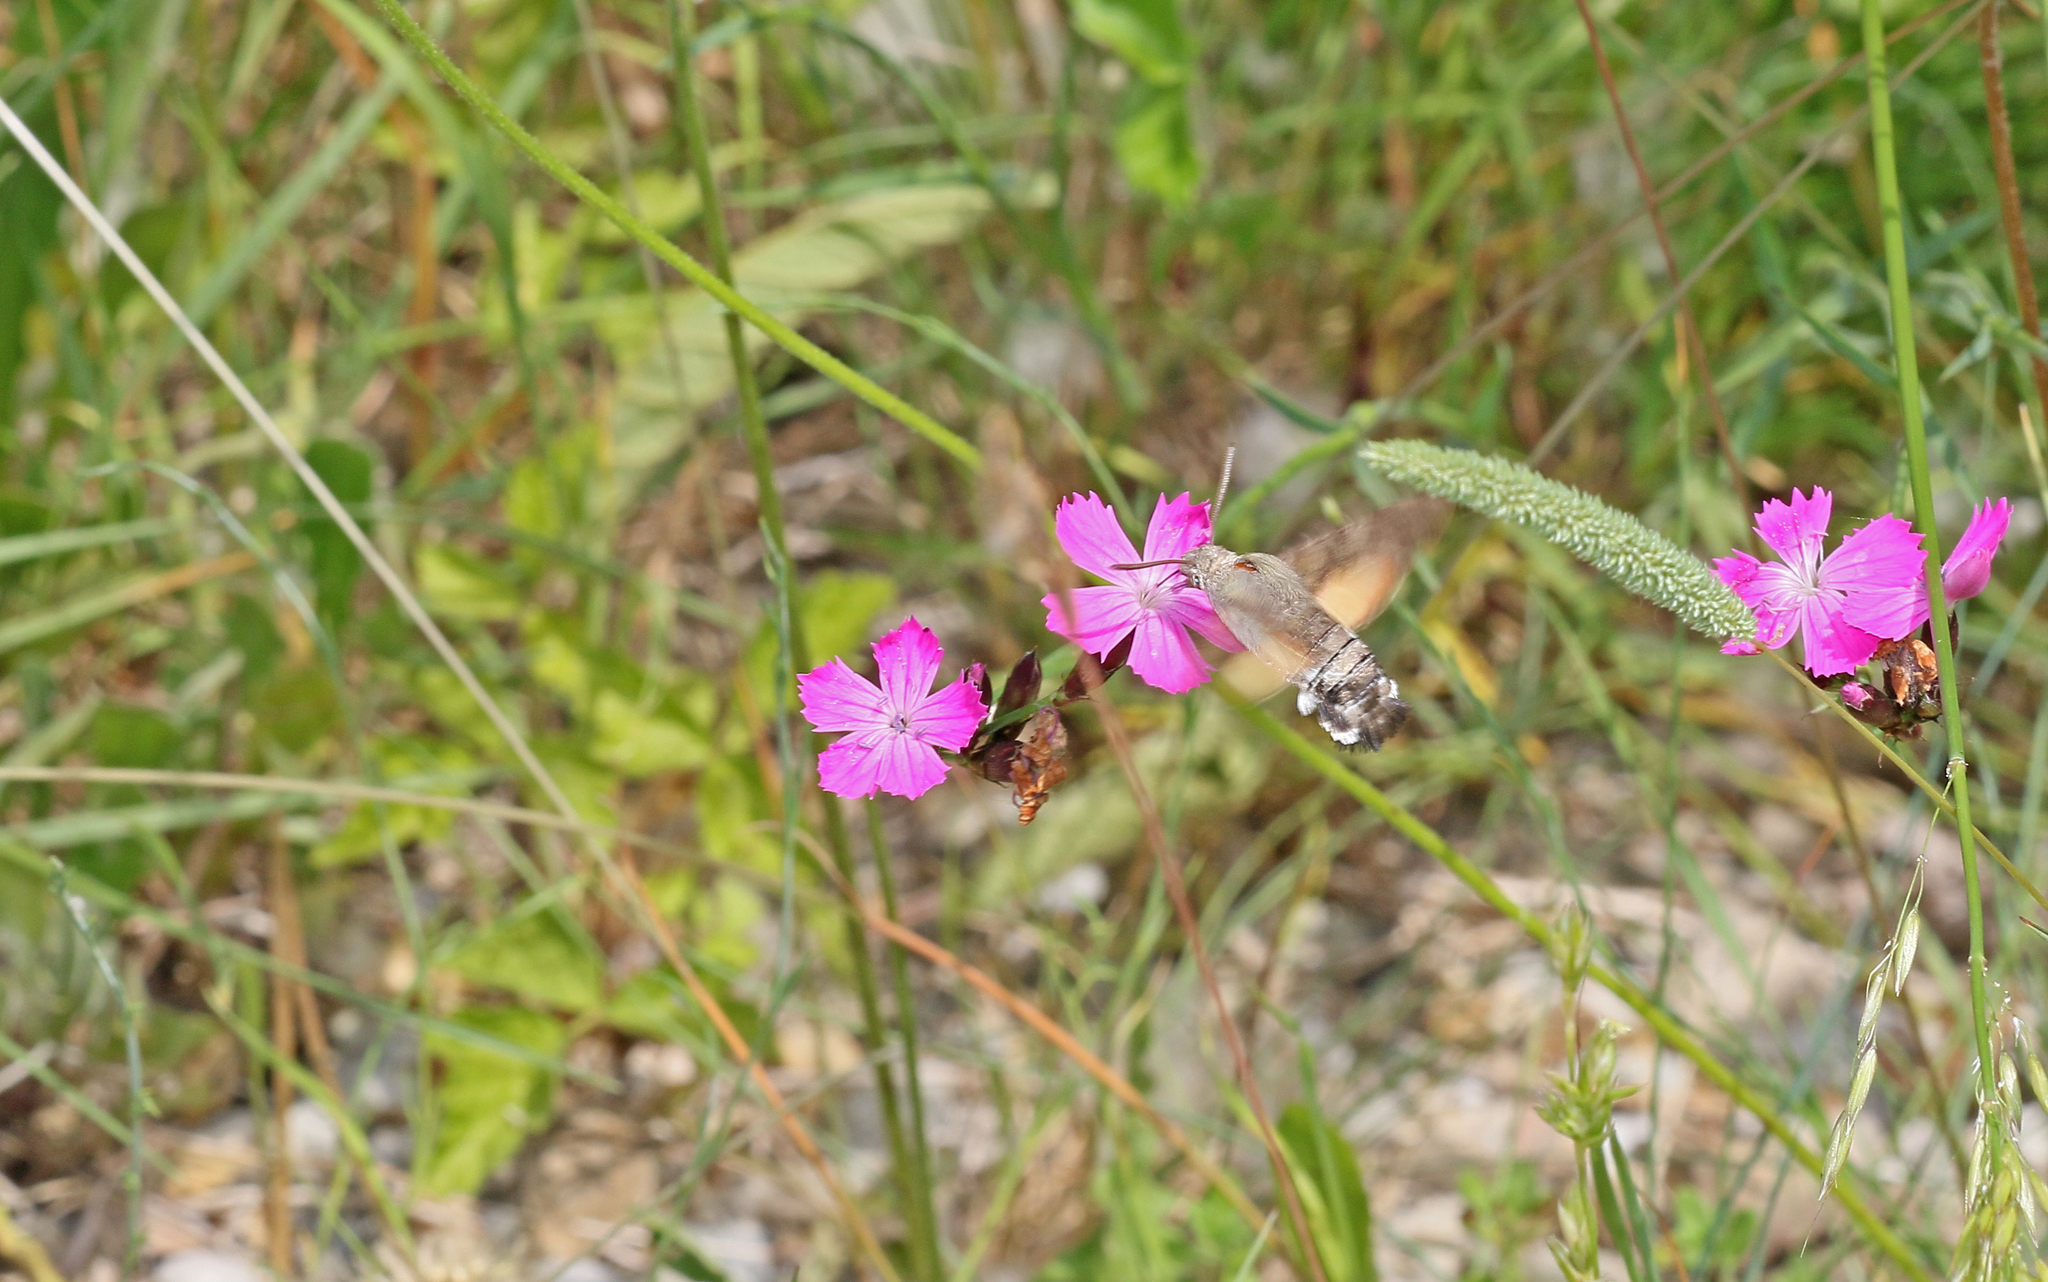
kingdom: Animalia
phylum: Arthropoda
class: Insecta
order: Lepidoptera
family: Sphingidae
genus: Macroglossum
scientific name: Macroglossum stellatarum
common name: Humming-bird hawk-moth
